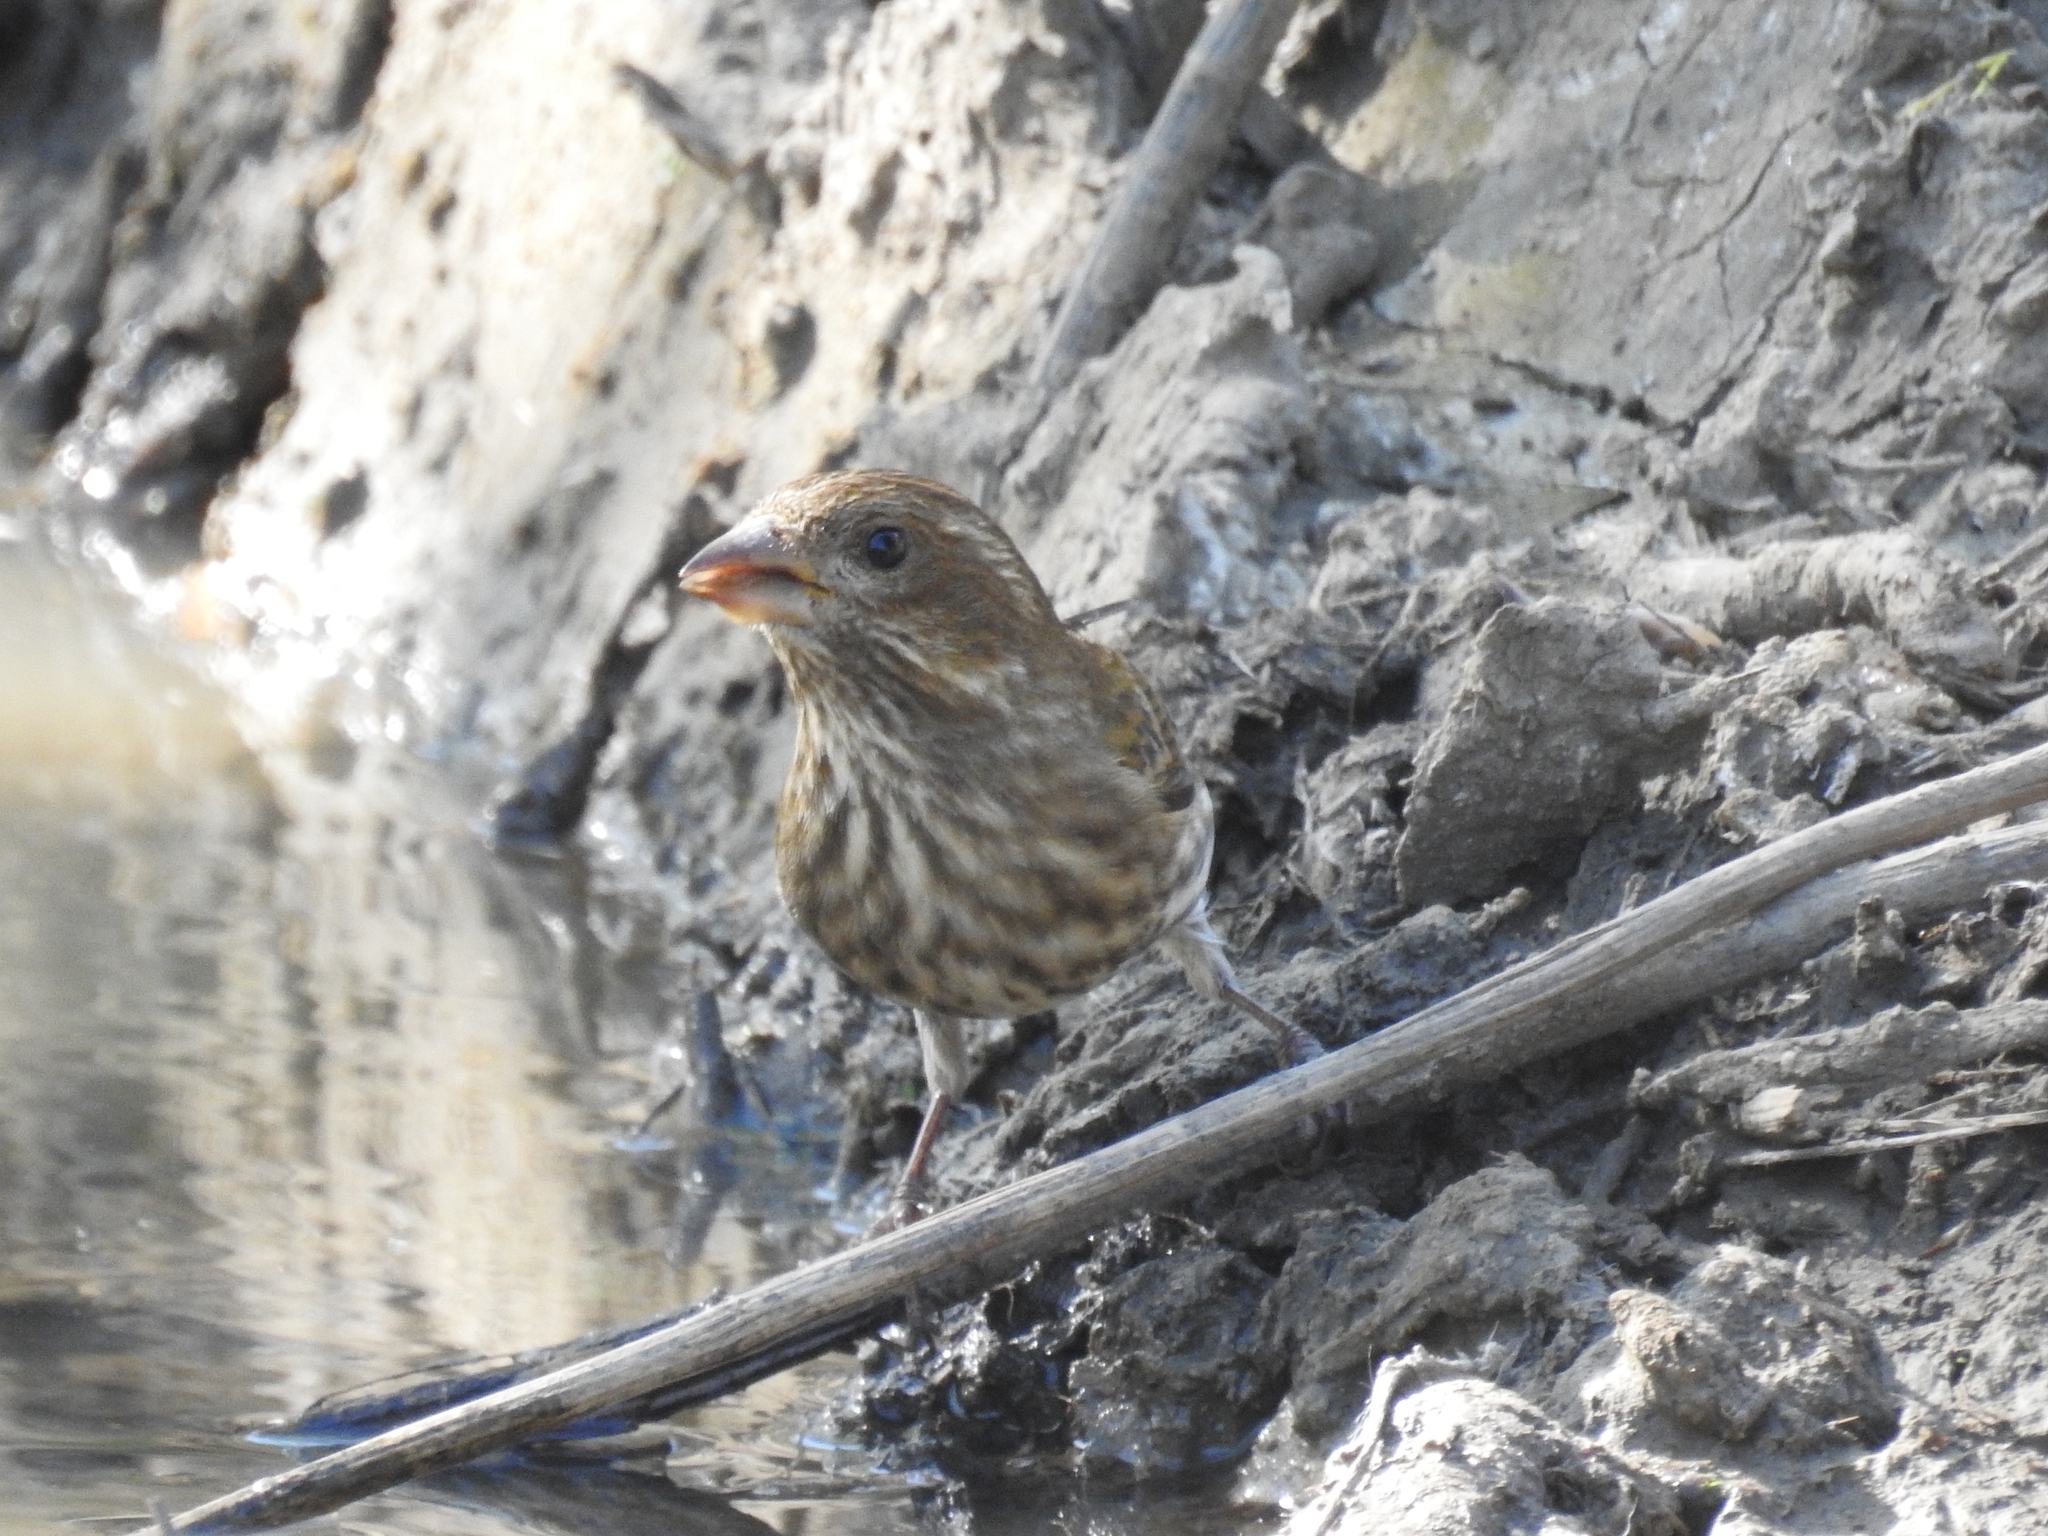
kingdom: Animalia
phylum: Chordata
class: Aves
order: Passeriformes
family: Fringillidae
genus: Haemorhous
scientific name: Haemorhous purpureus
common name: Purple finch
